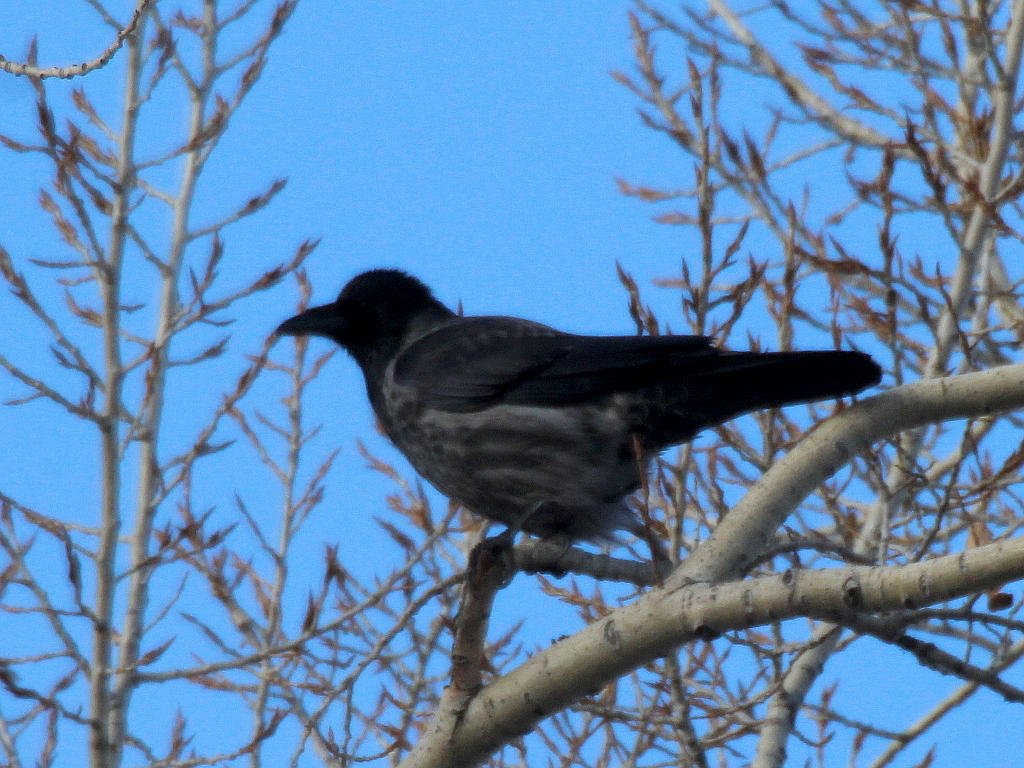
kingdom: Animalia
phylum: Chordata
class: Aves
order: Passeriformes
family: Corvidae
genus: Corvus
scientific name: Corvus
